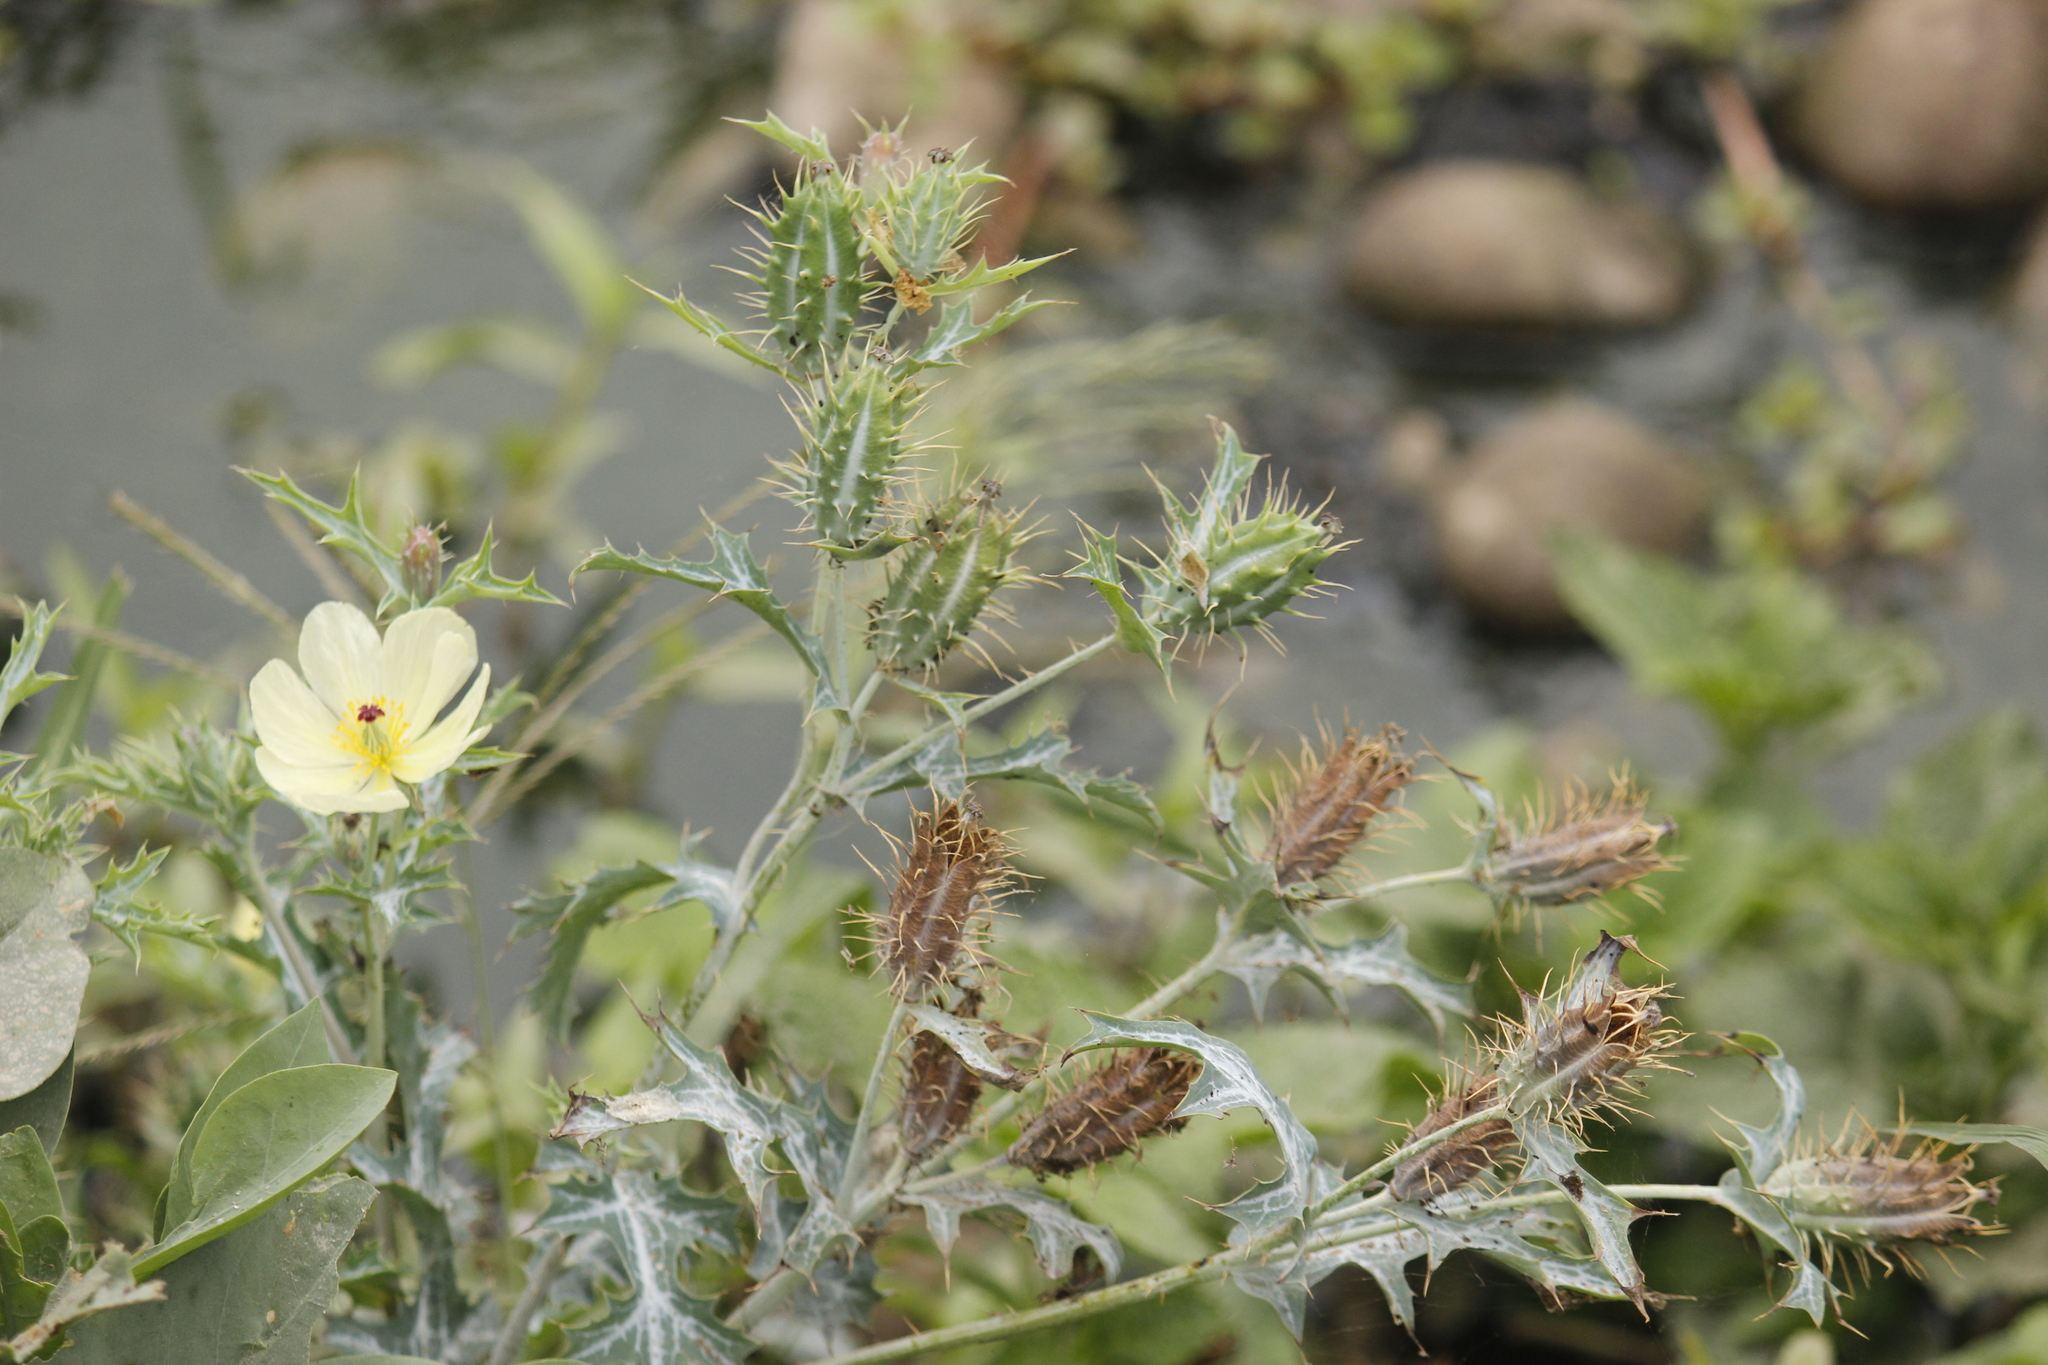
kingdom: Plantae
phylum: Tracheophyta
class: Magnoliopsida
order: Ranunculales
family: Papaveraceae
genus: Argemone
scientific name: Argemone subfusiformis
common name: American-poppy
